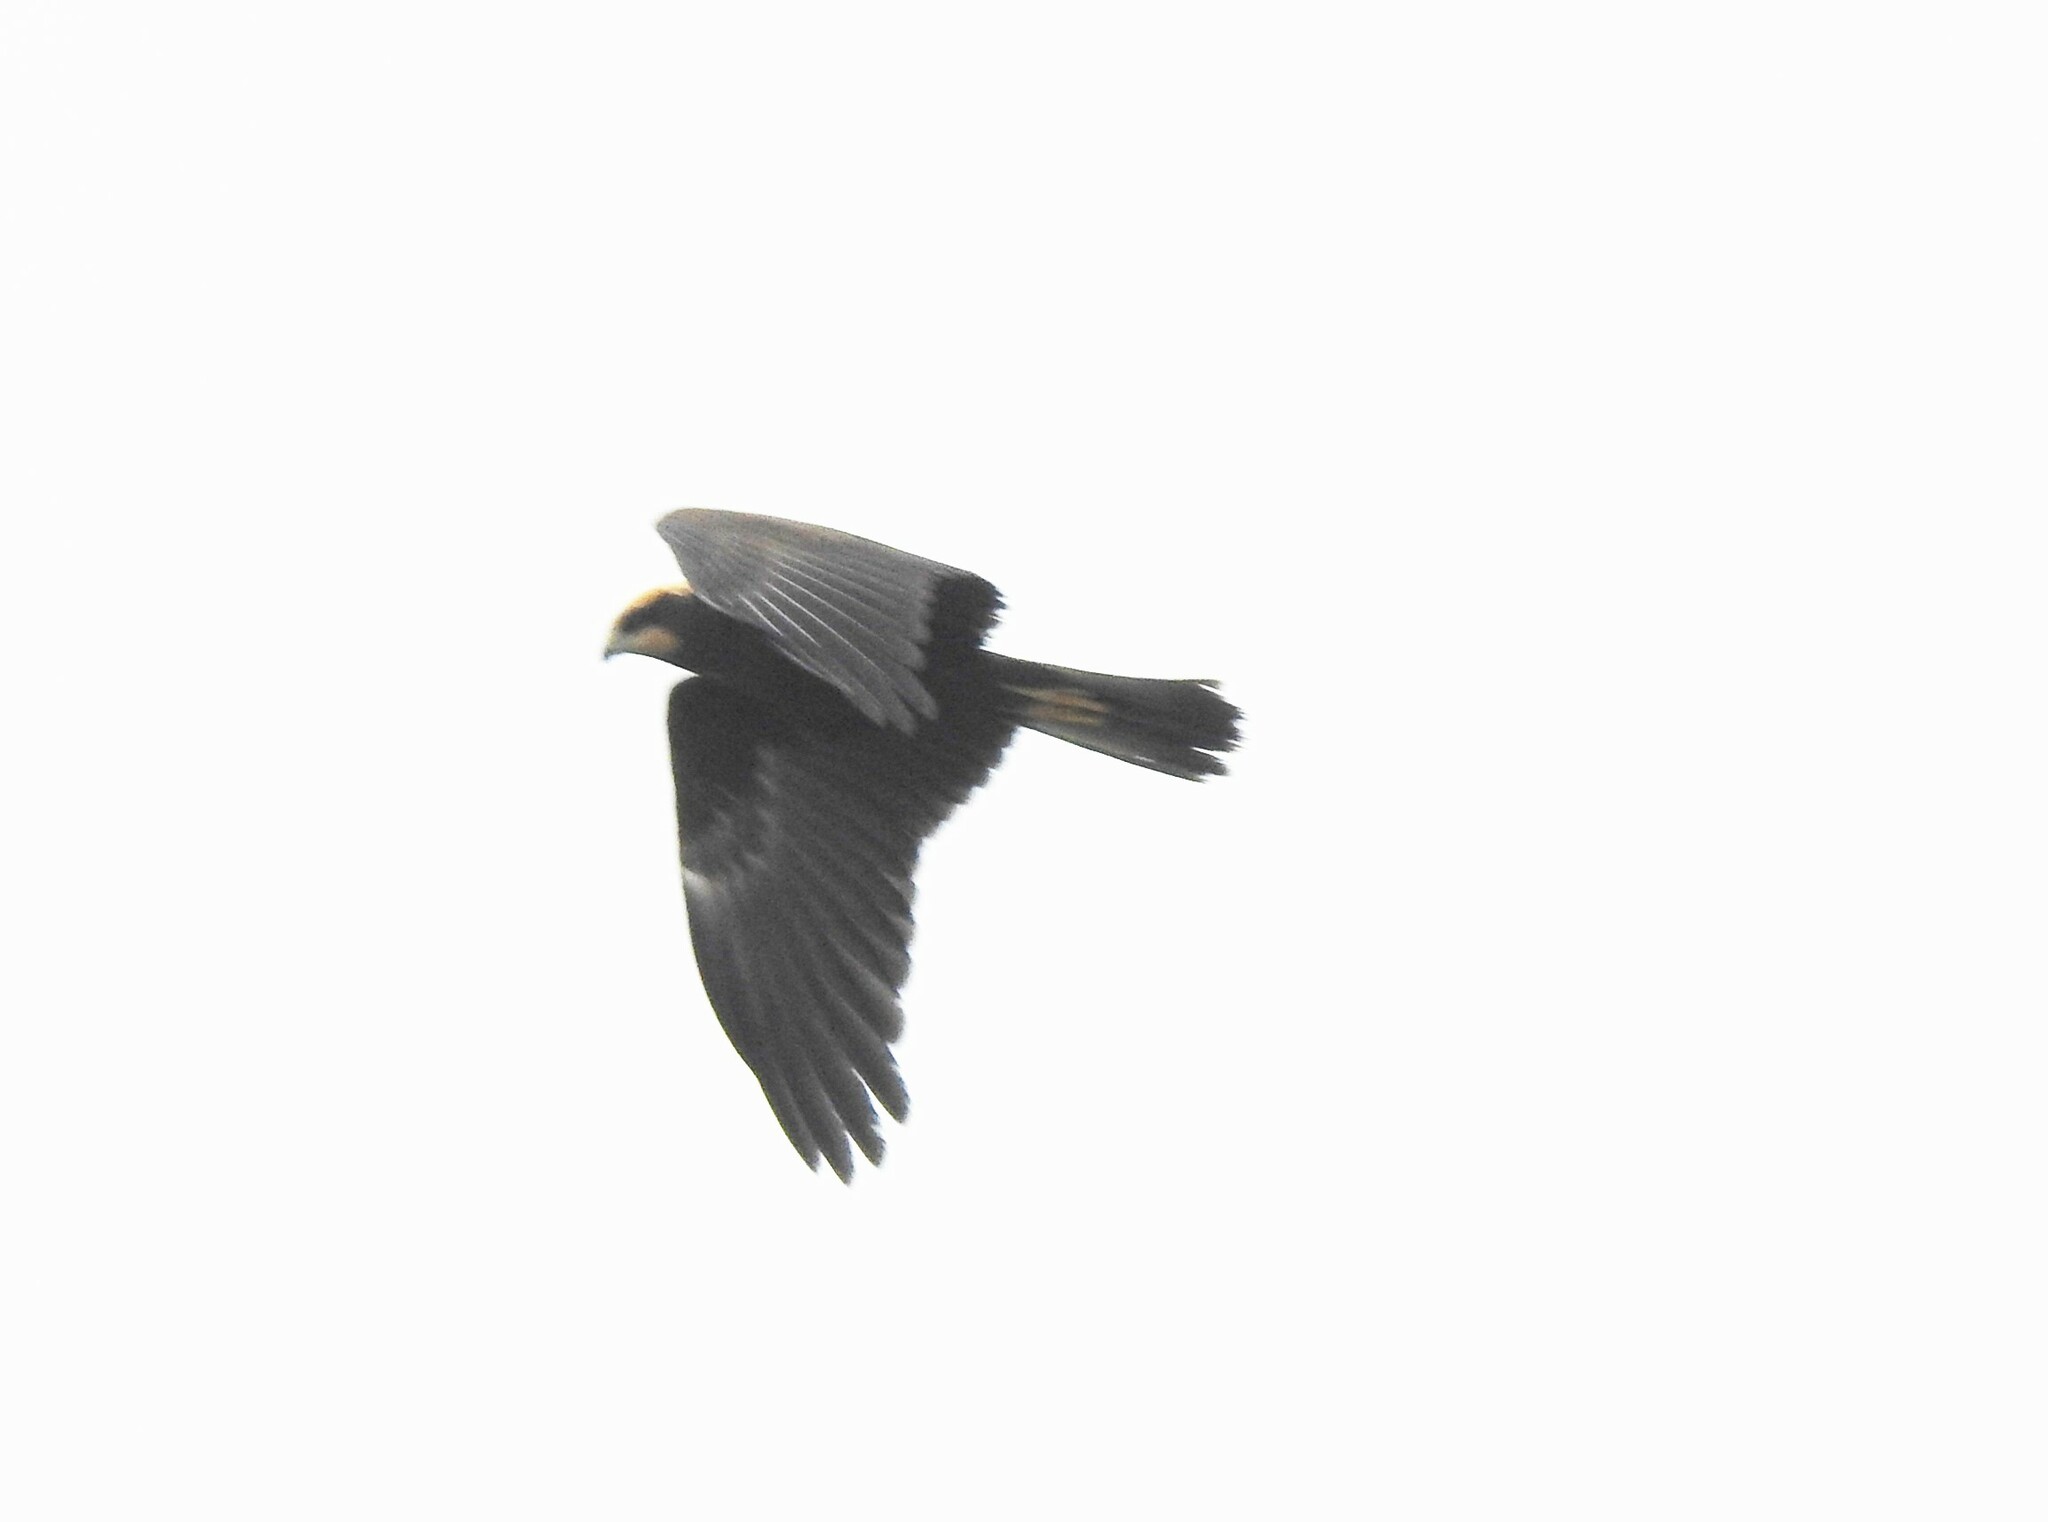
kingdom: Animalia
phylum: Chordata
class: Aves
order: Accipitriformes
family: Accipitridae
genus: Circus
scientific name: Circus aeruginosus
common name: Western marsh harrier
